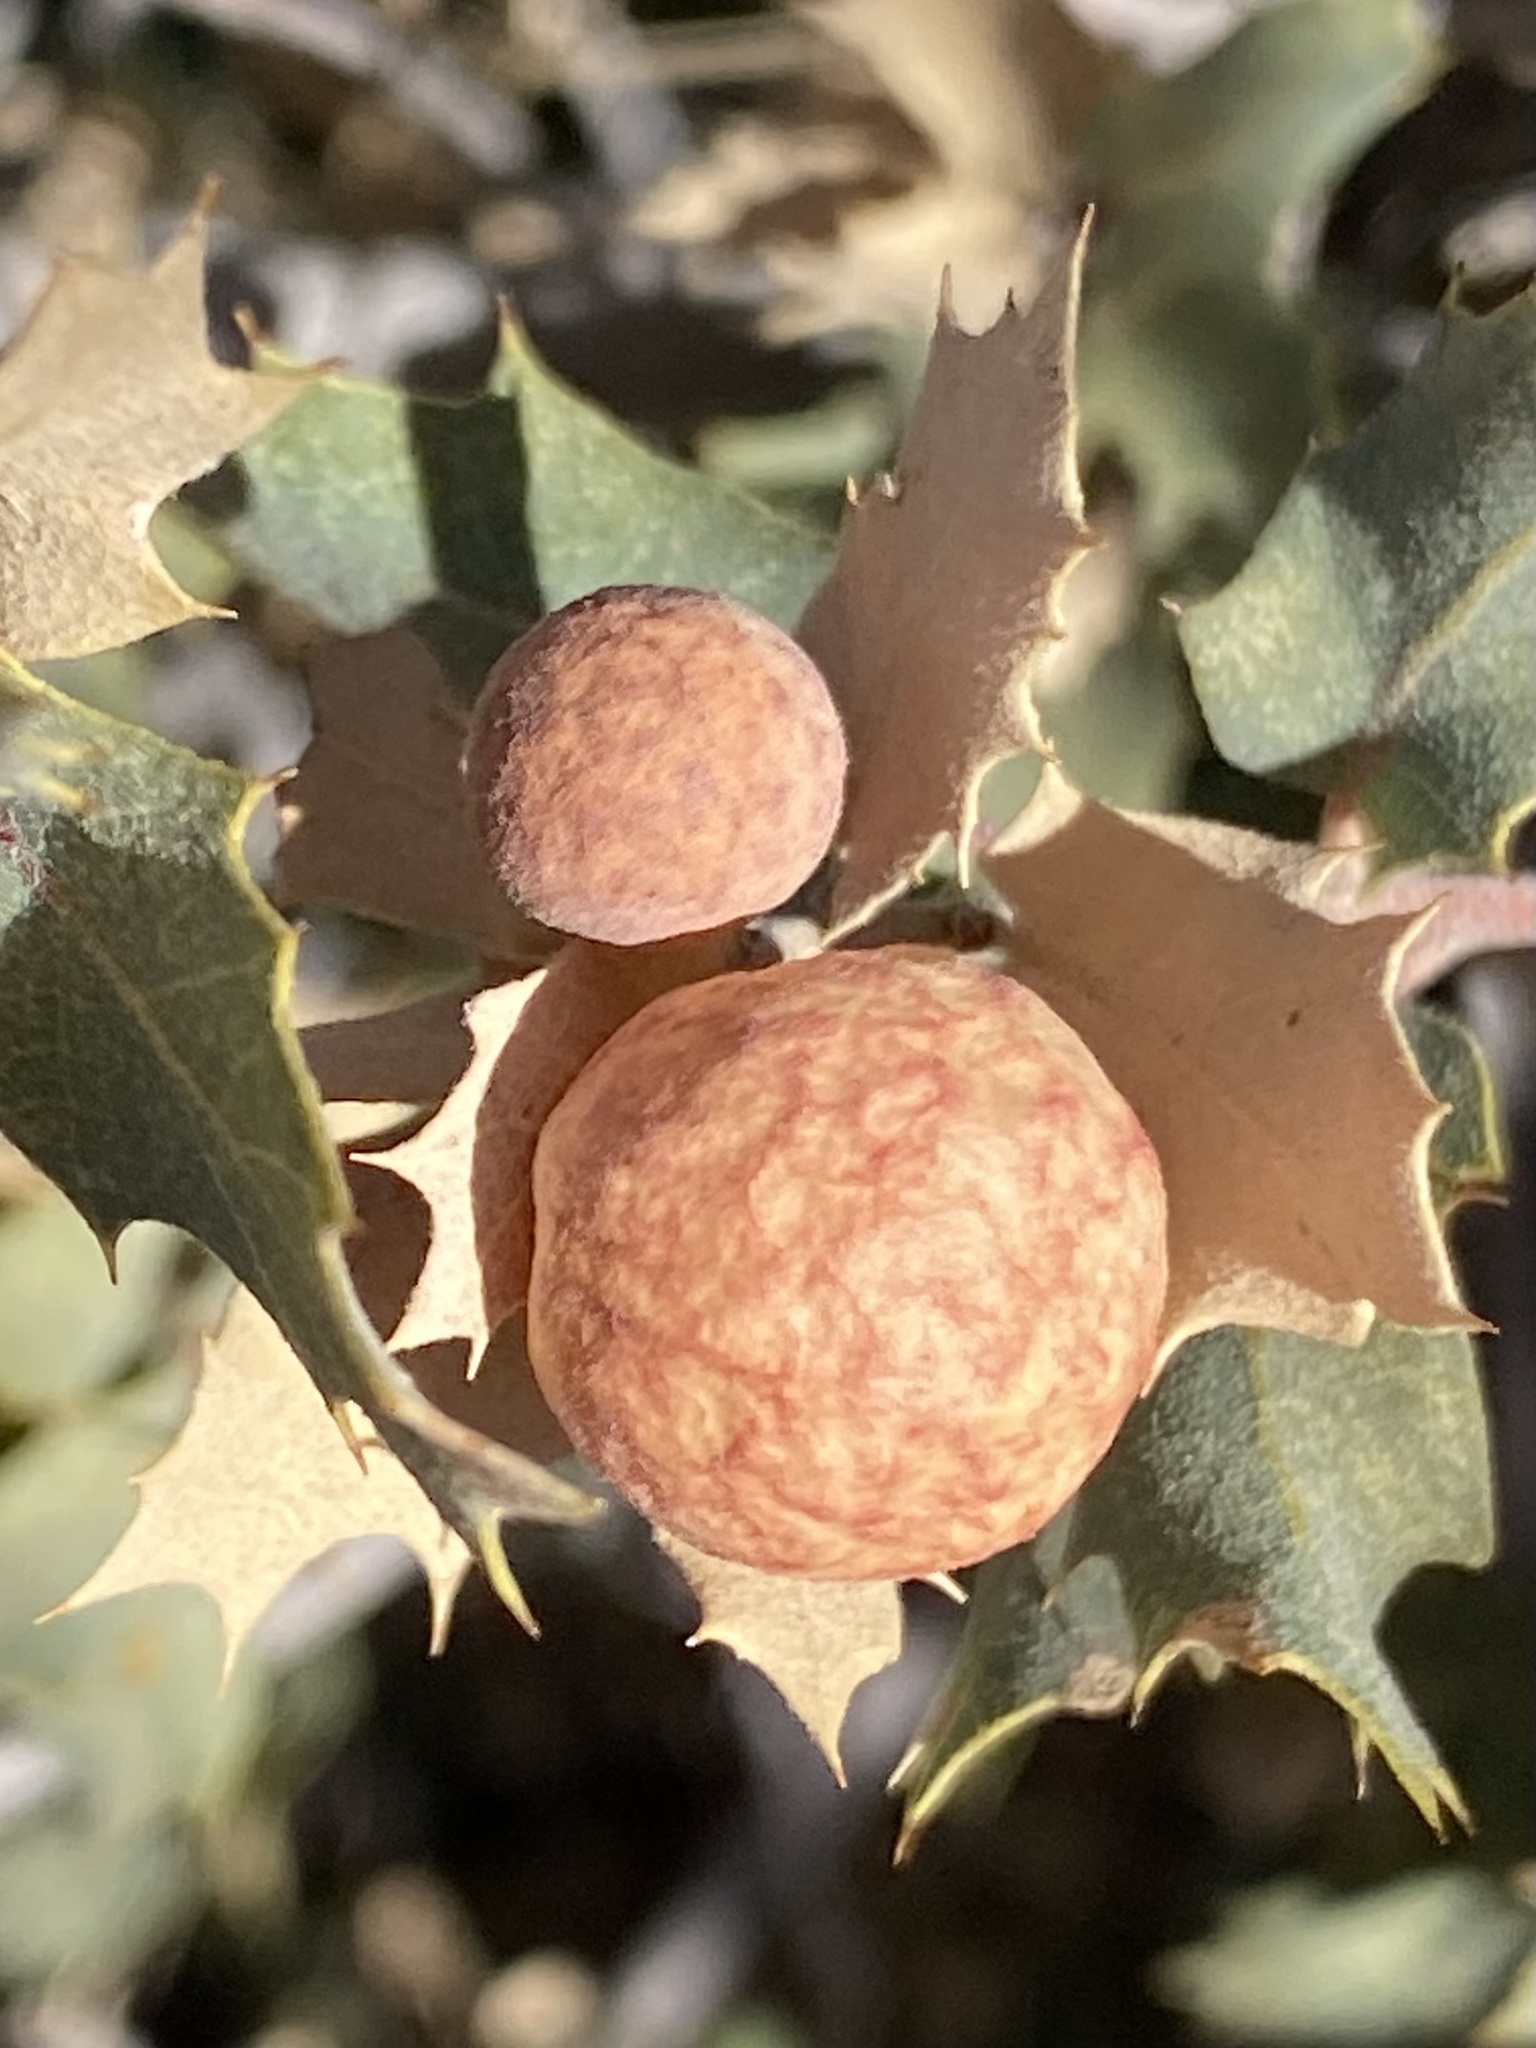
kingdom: Animalia
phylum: Arthropoda
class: Insecta
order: Hymenoptera
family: Cynipidae
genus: Atrusca
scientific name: Atrusca
